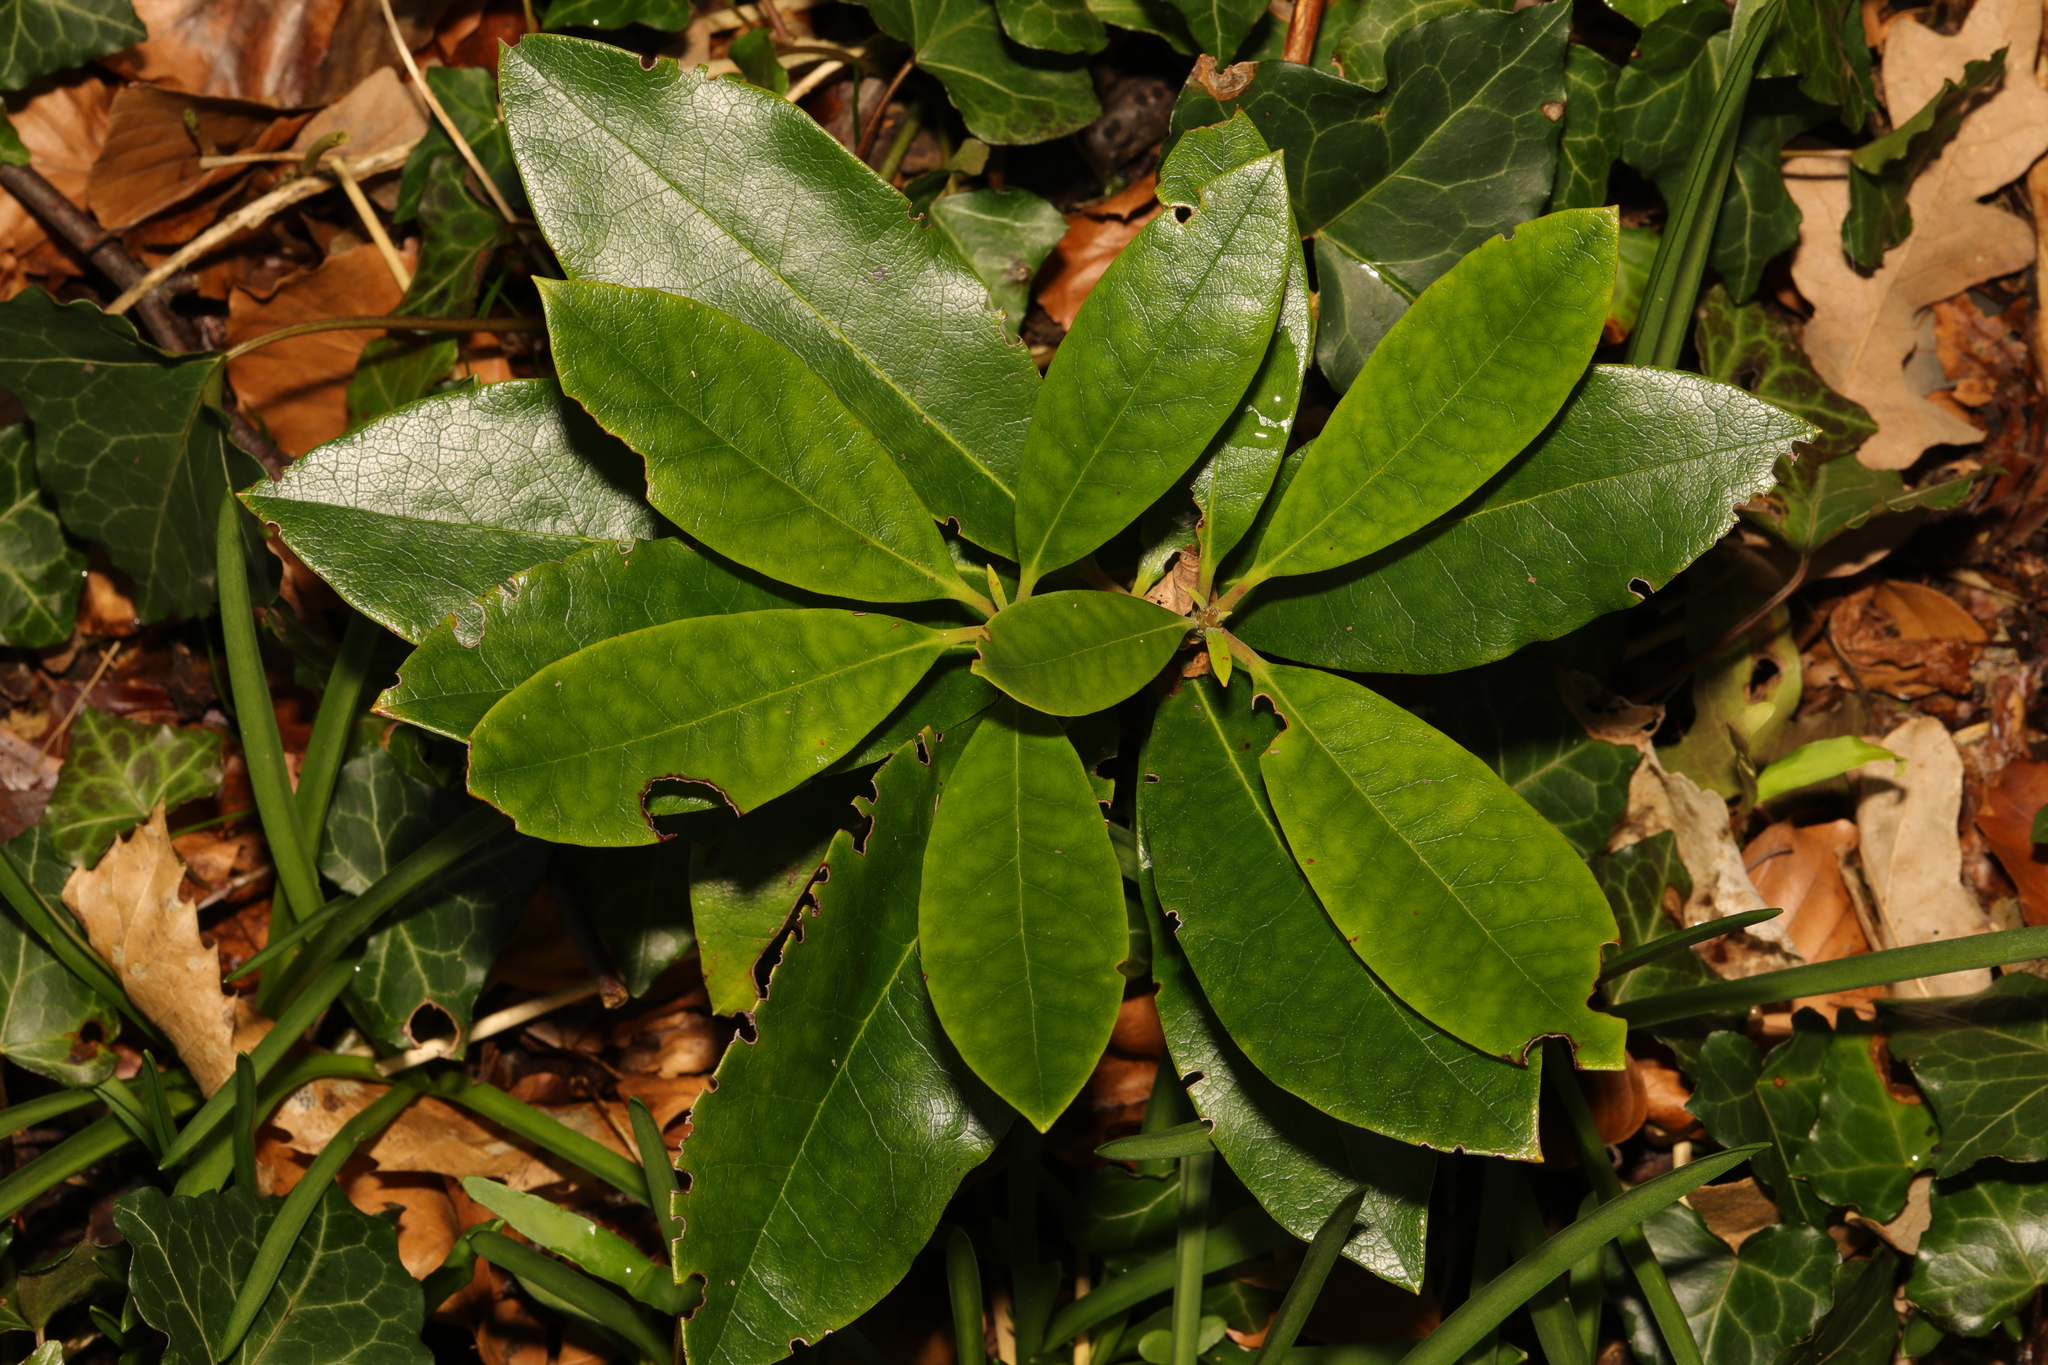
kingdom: Plantae
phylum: Tracheophyta
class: Magnoliopsida
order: Ericales
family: Ericaceae
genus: Rhododendron
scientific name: Rhododendron ponticum
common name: Rhododendron
